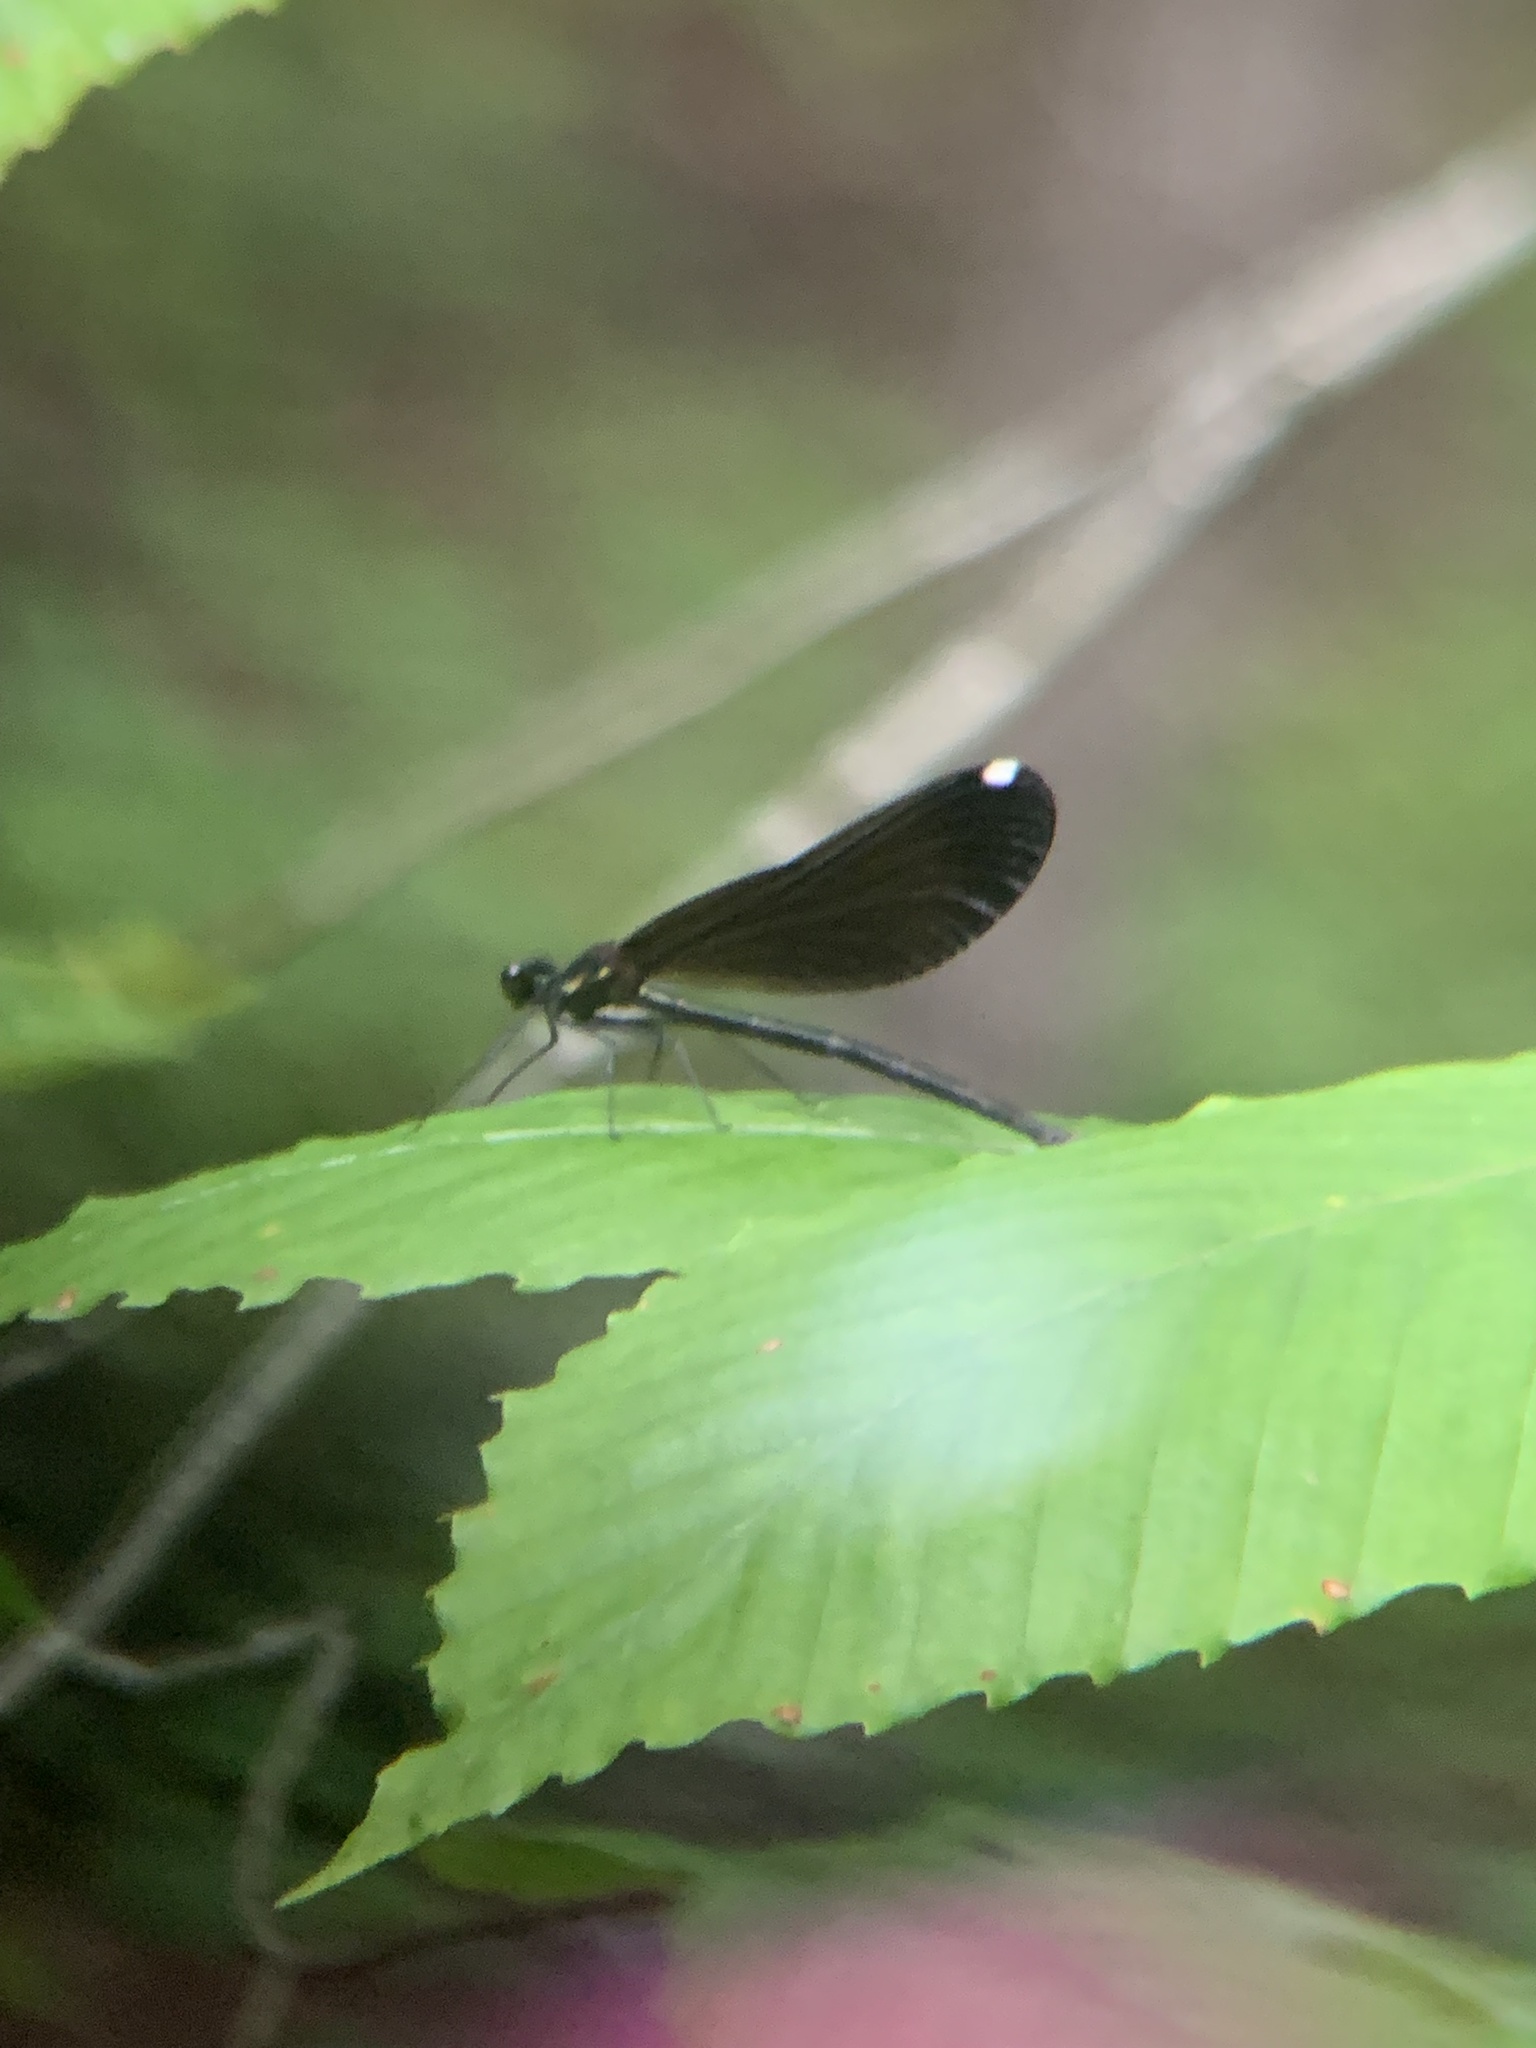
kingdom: Animalia
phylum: Arthropoda
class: Insecta
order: Odonata
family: Calopterygidae
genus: Calopteryx
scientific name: Calopteryx maculata
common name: Ebony jewelwing
